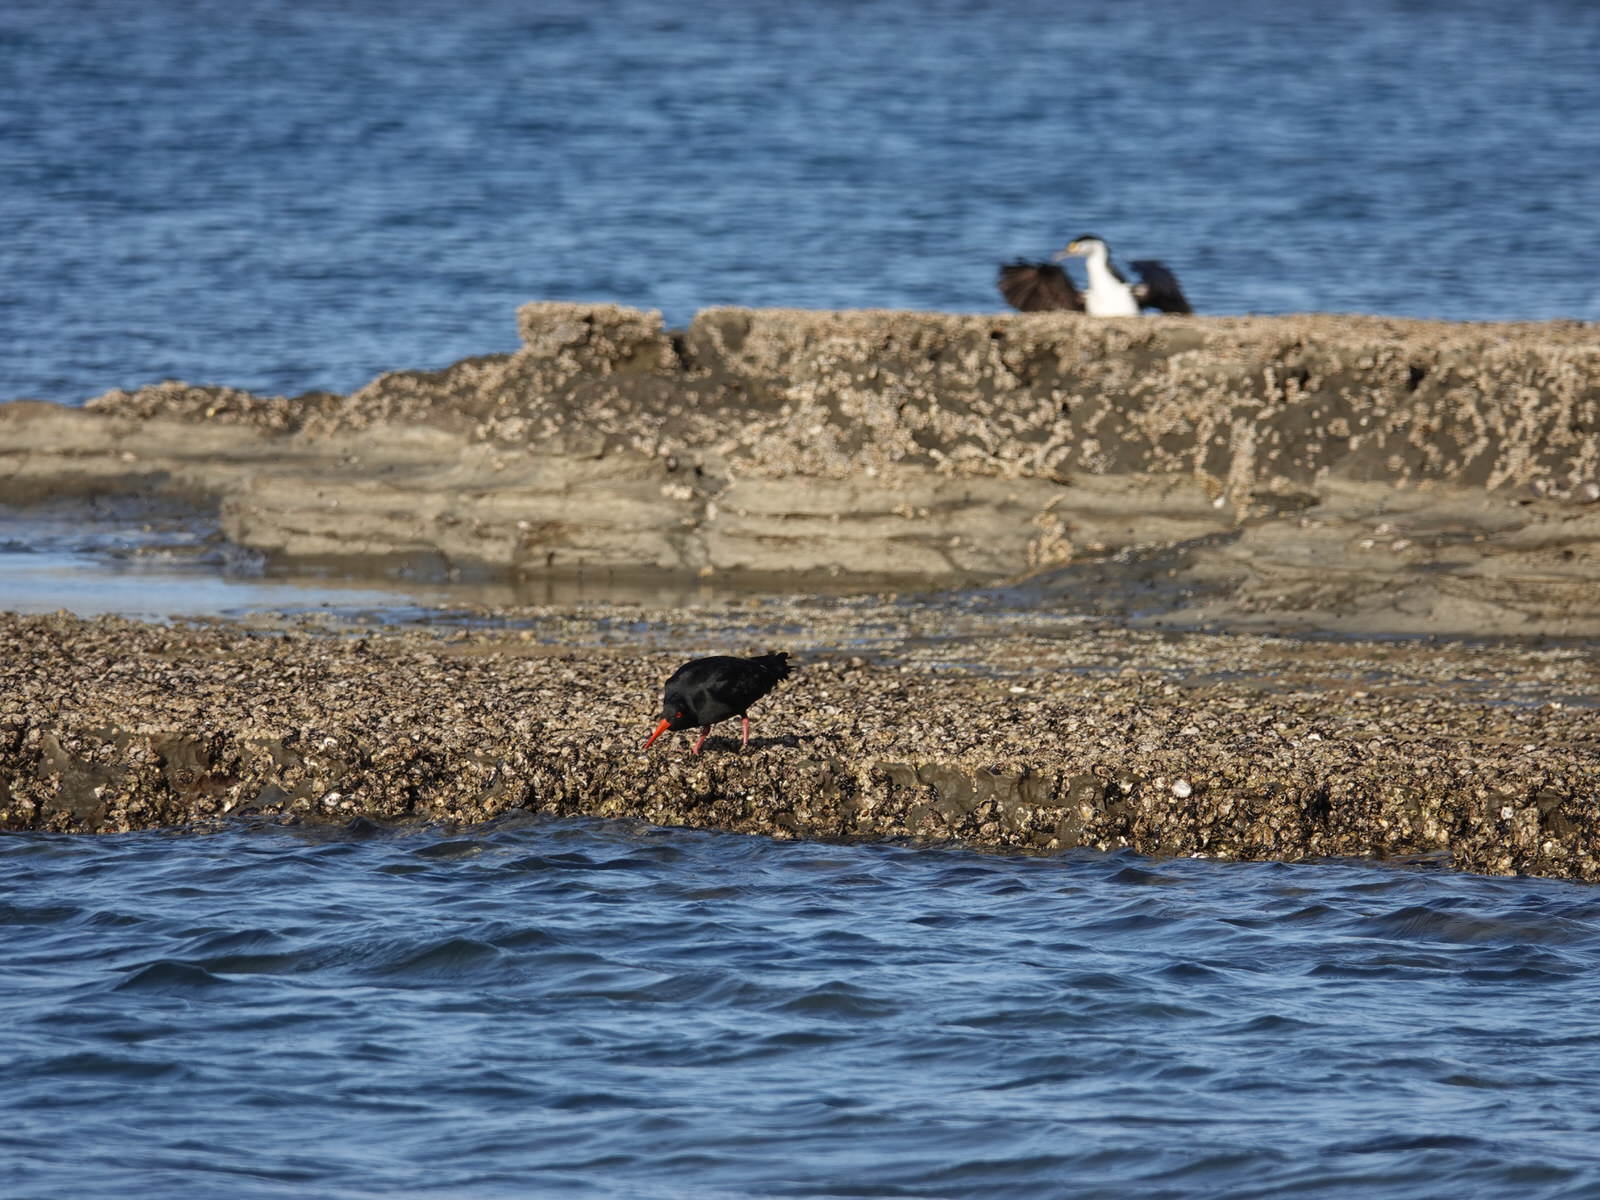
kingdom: Animalia
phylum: Chordata
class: Aves
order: Charadriiformes
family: Haematopodidae
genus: Haematopus
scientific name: Haematopus unicolor
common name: Variable oystercatcher
